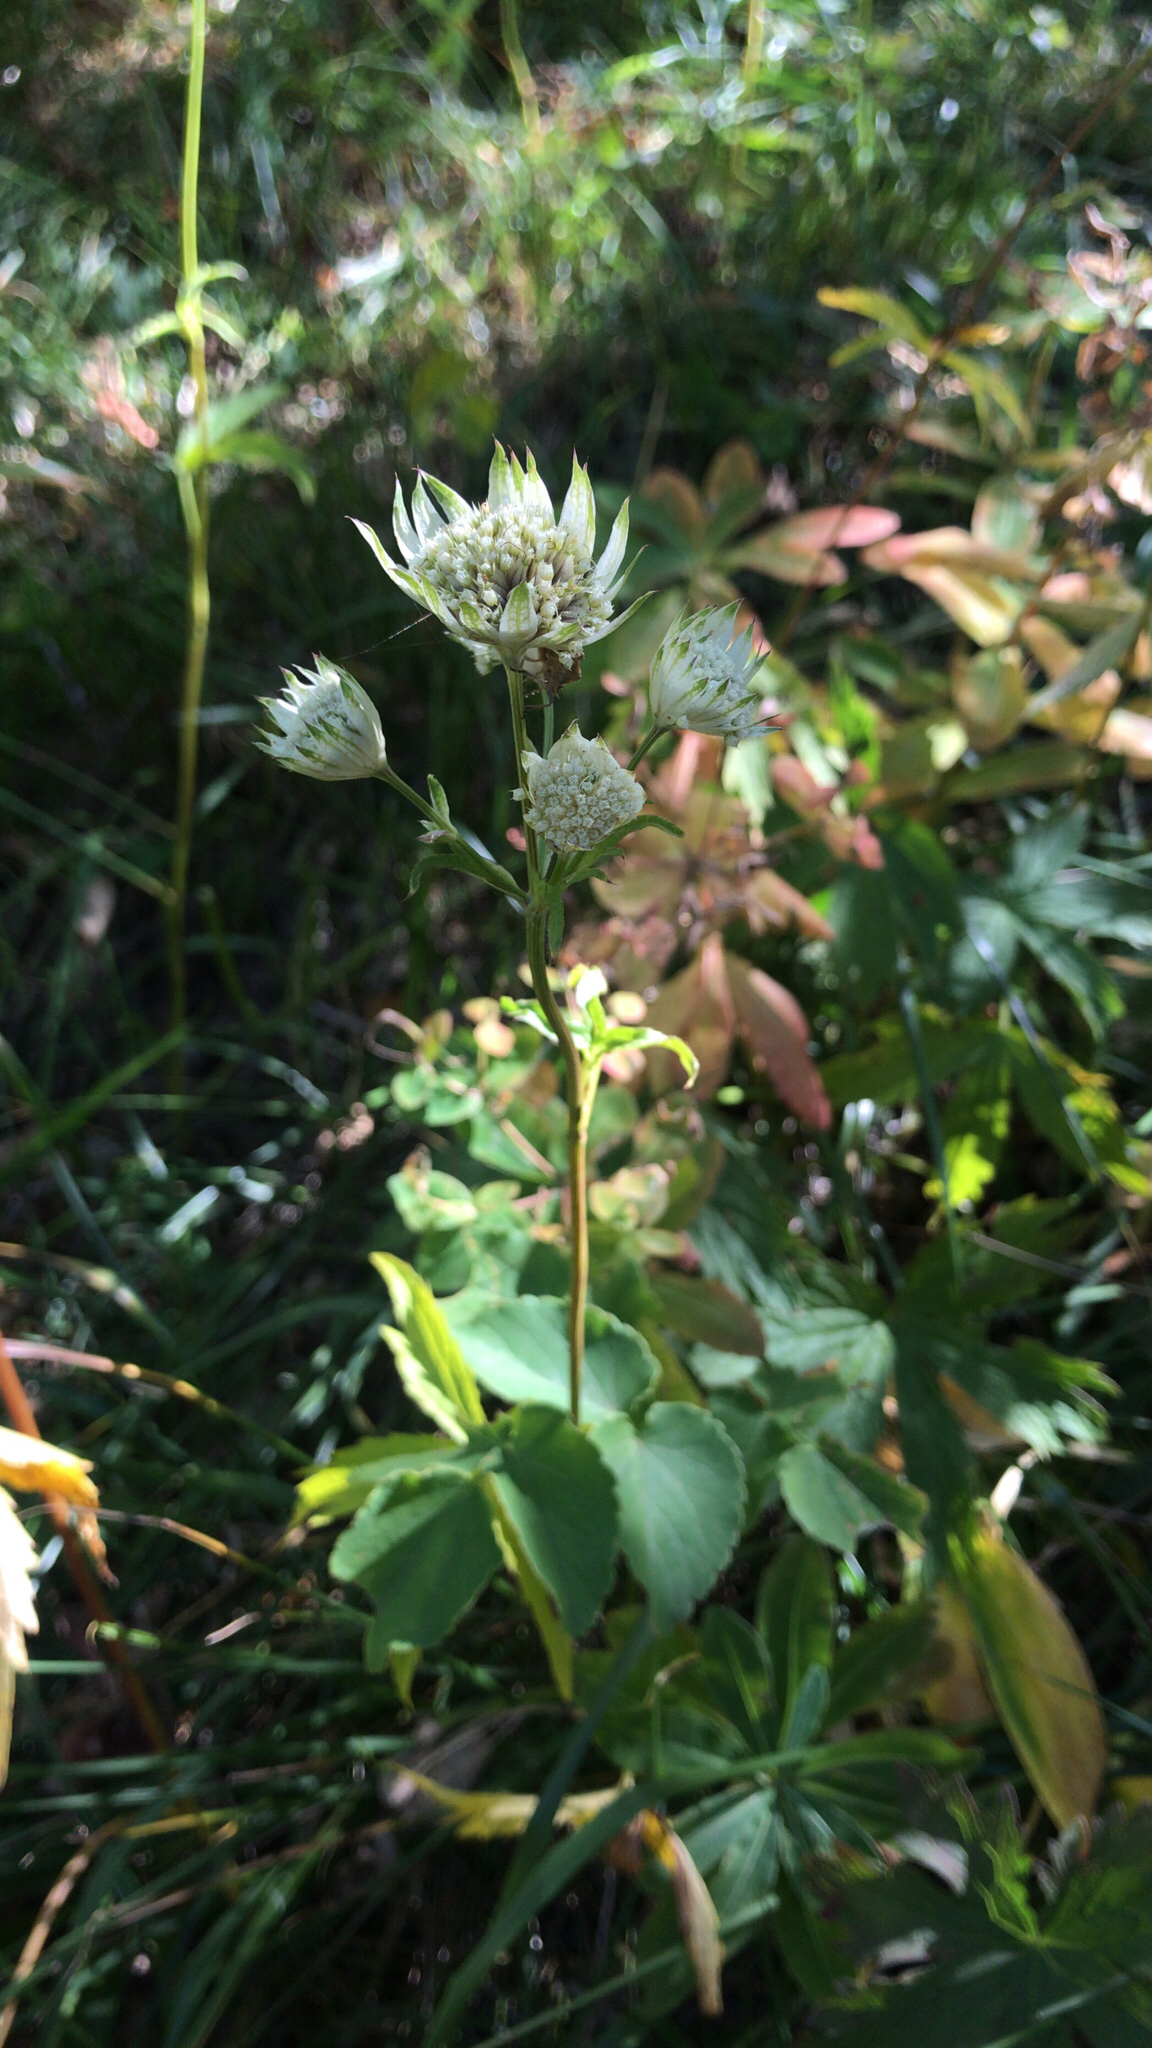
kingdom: Plantae
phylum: Tracheophyta
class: Magnoliopsida
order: Apiales
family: Apiaceae
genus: Astrantia
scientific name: Astrantia major
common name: Greater masterwort
